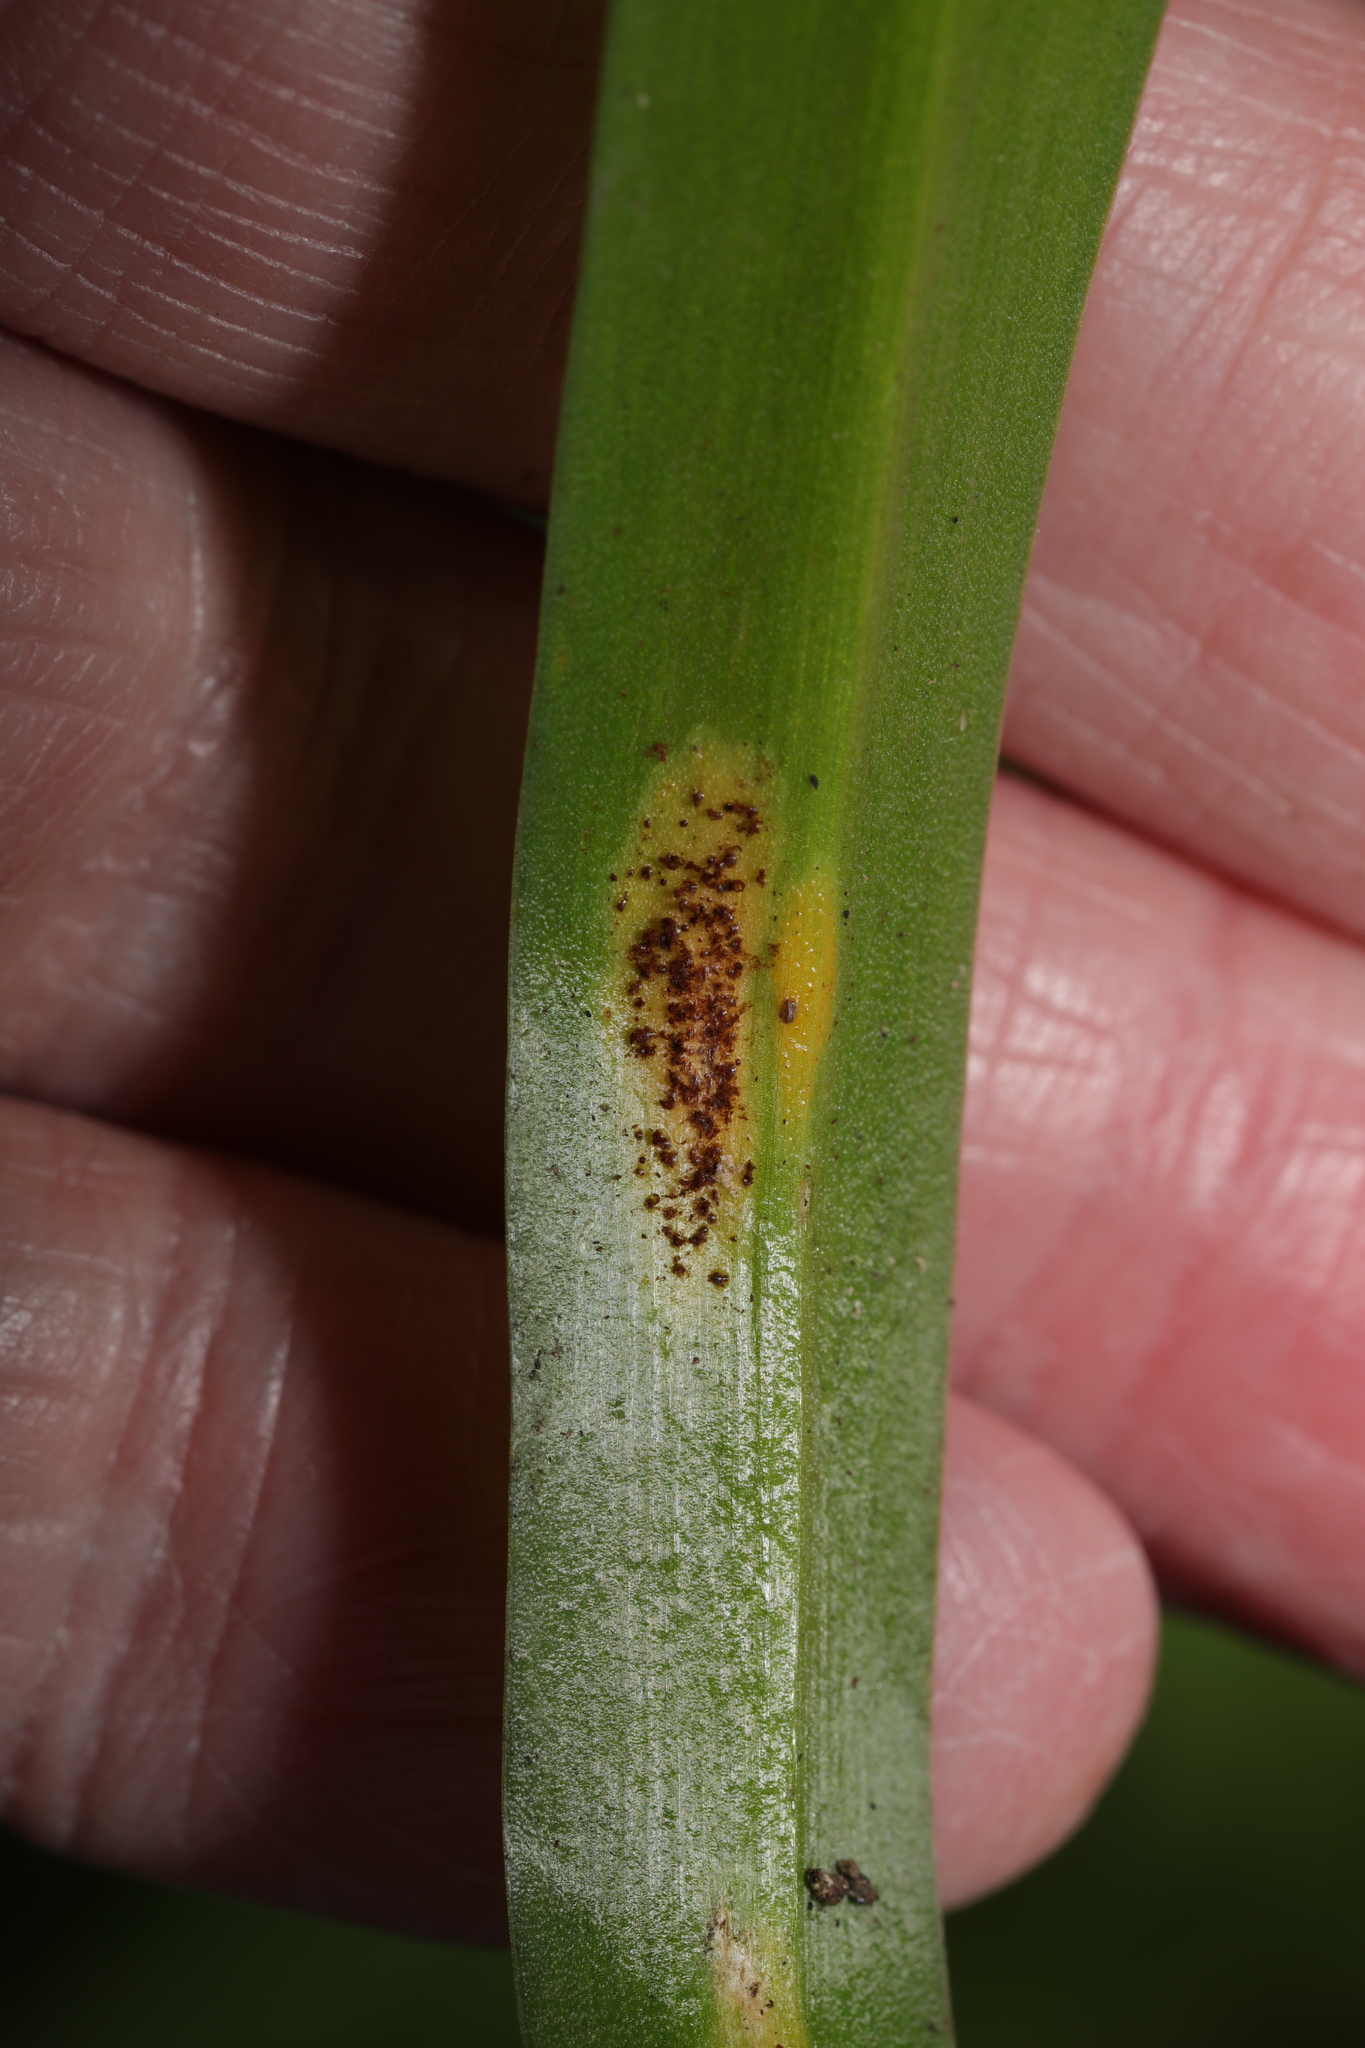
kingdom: Fungi
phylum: Basidiomycota
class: Pucciniomycetes
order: Pucciniales
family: Pucciniaceae
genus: Uromyces
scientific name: Uromyces hyacinthi
